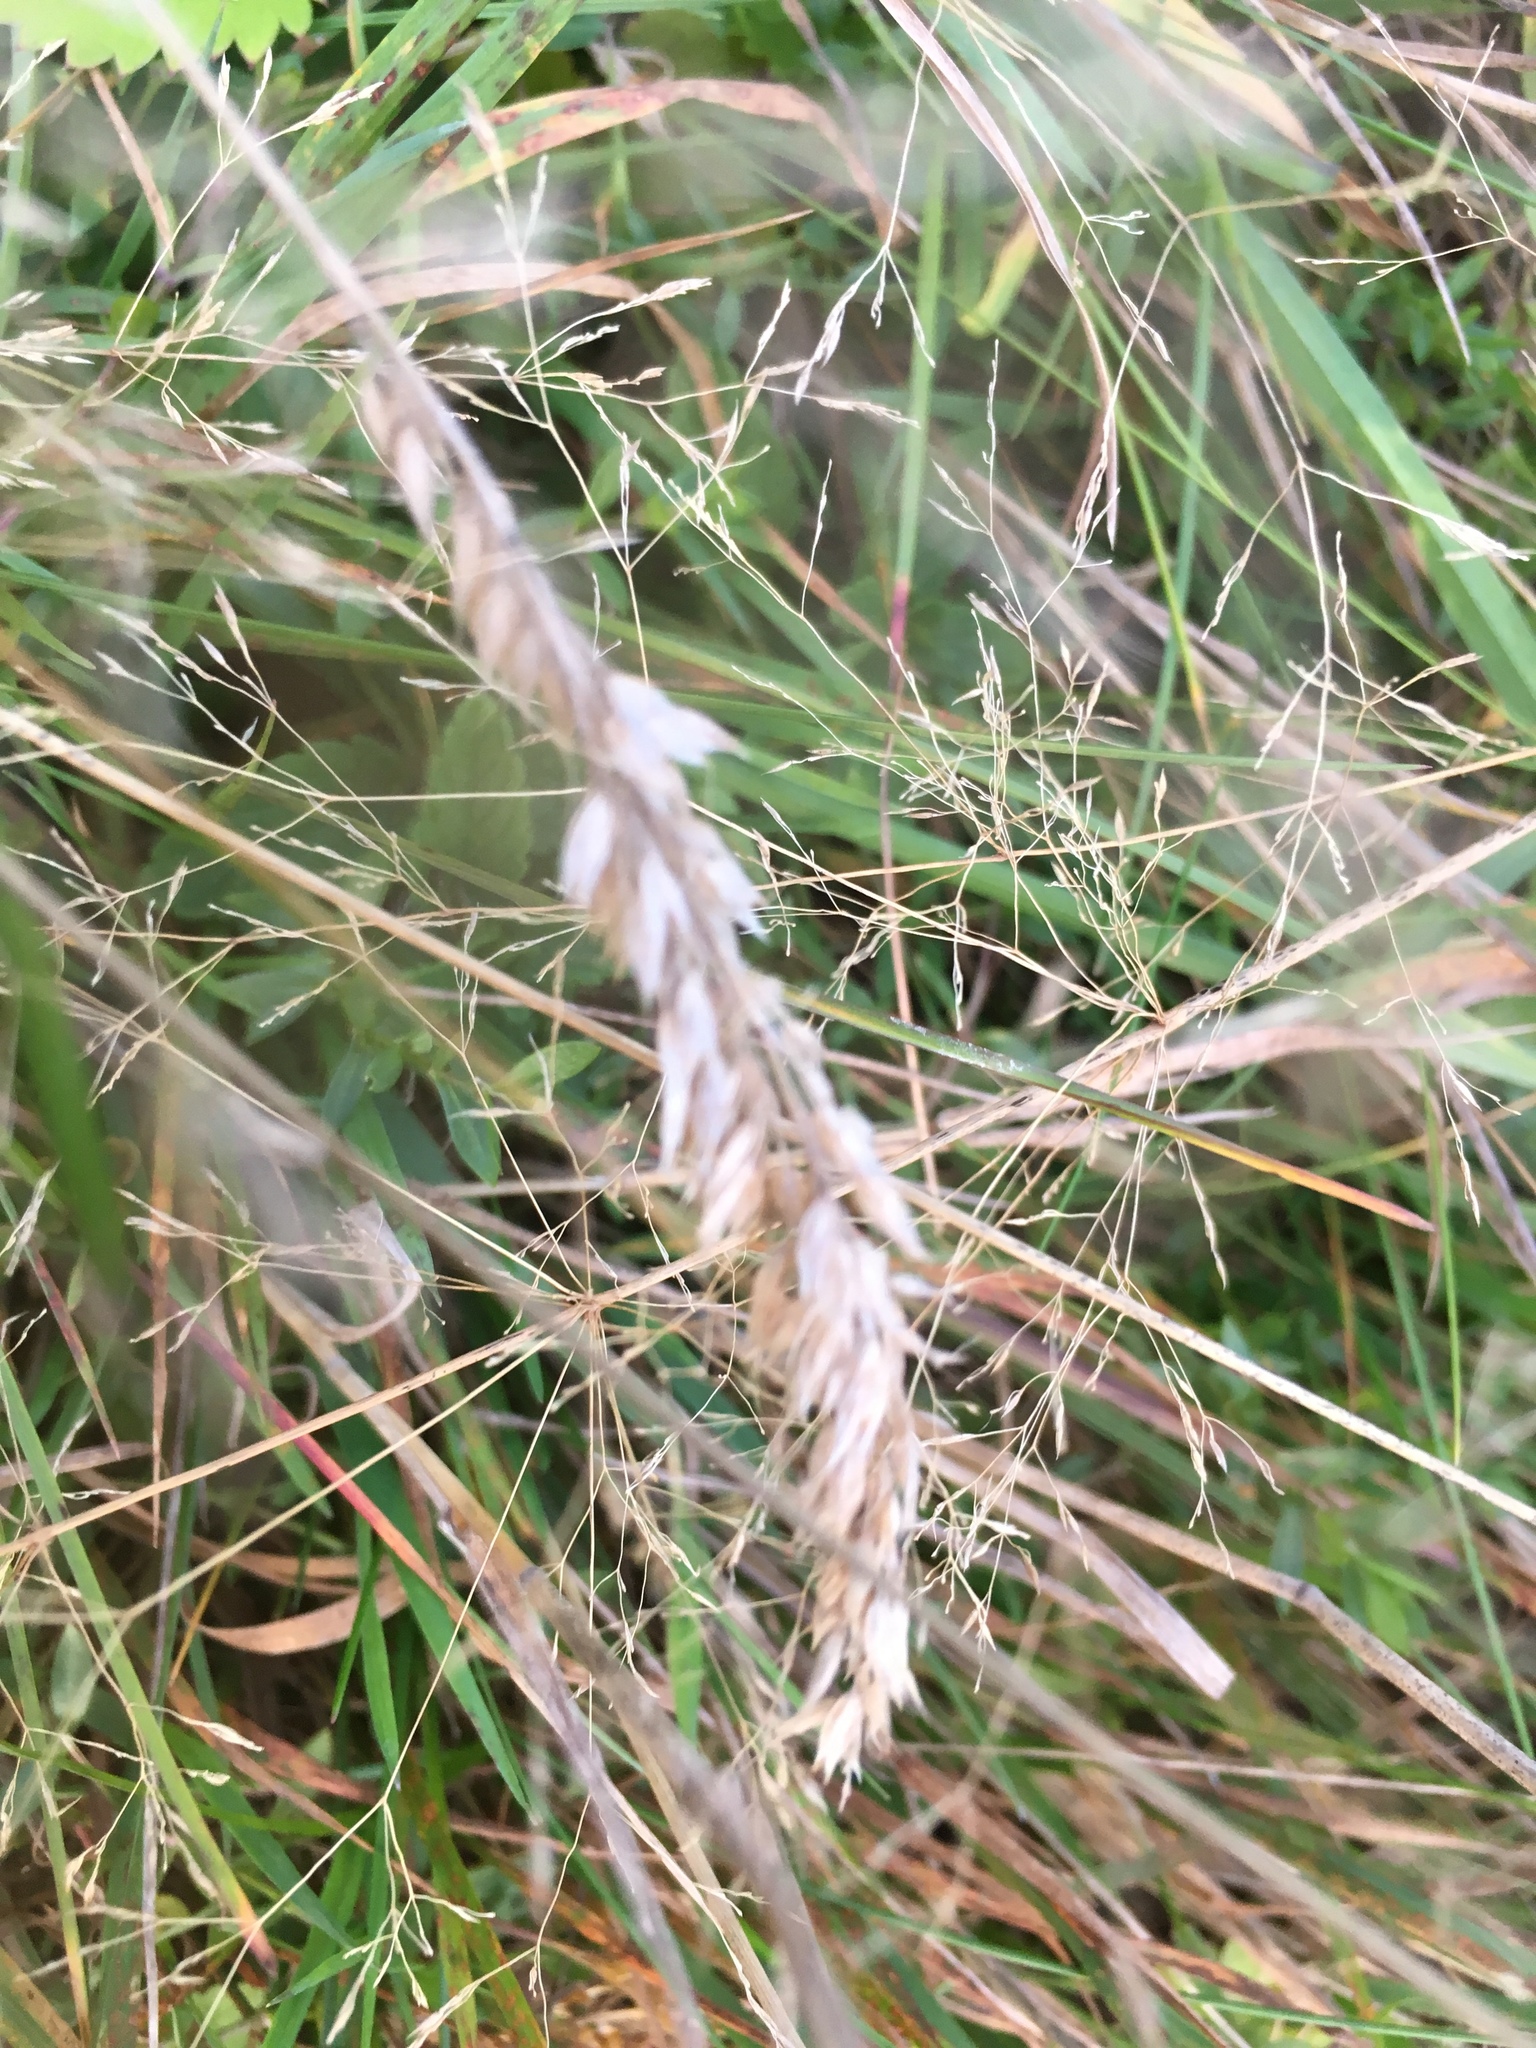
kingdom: Plantae
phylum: Tracheophyta
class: Liliopsida
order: Poales
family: Poaceae
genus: Holcus
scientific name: Holcus lanatus
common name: Yorkshire-fog
